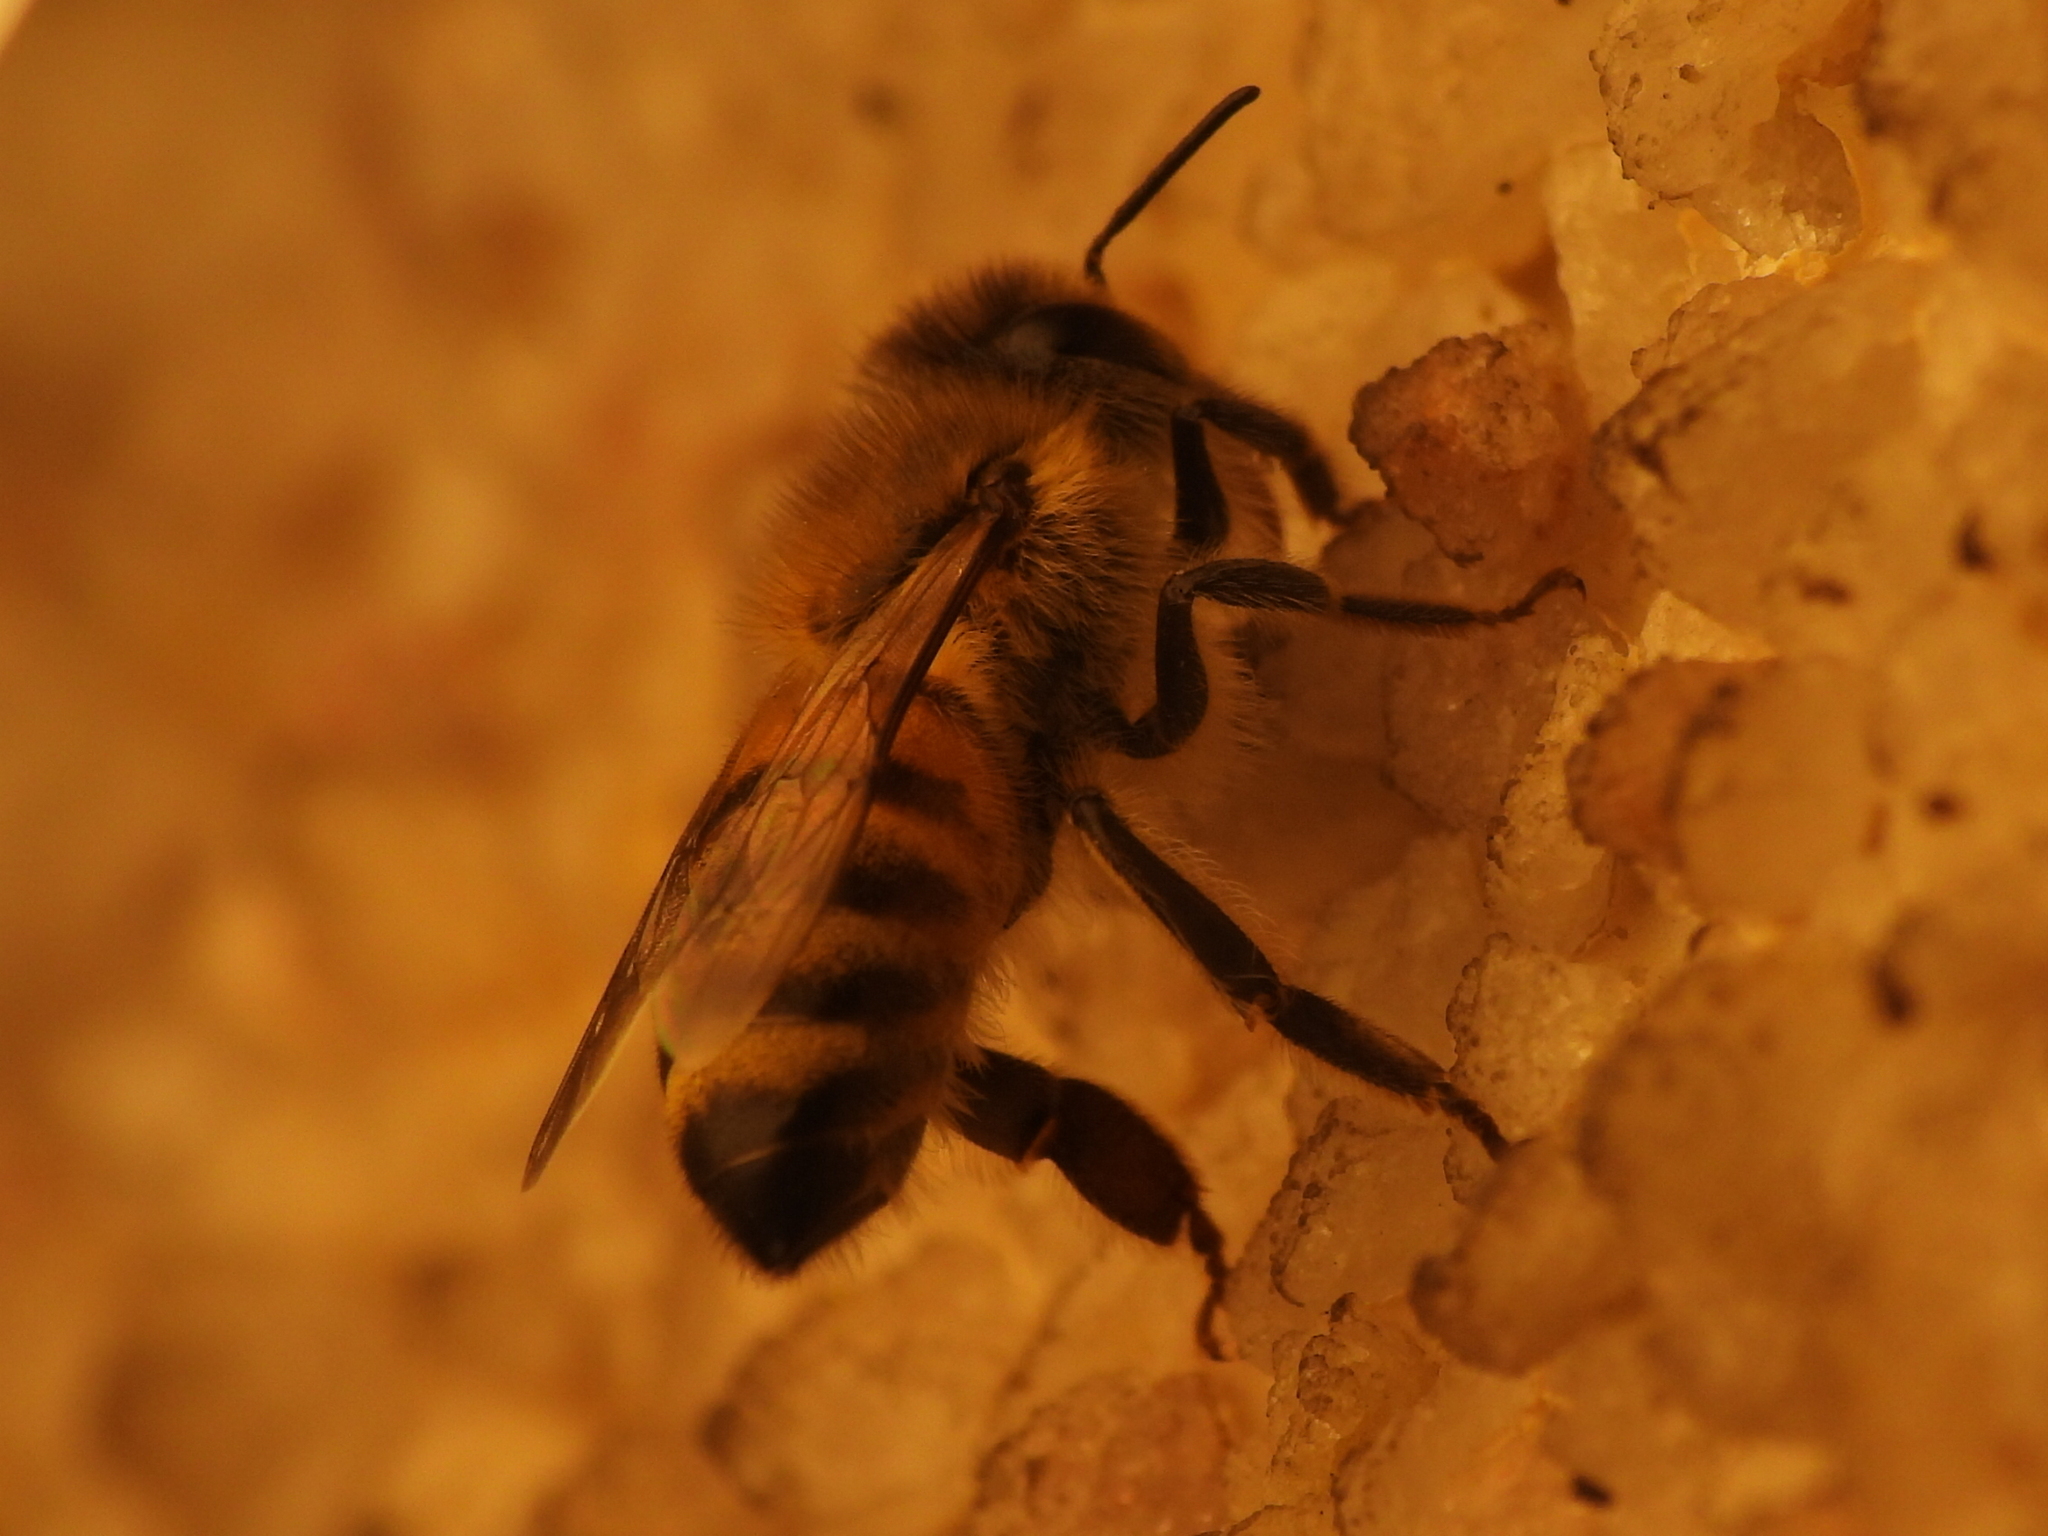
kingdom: Animalia
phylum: Arthropoda
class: Insecta
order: Hymenoptera
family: Apidae
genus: Apis
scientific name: Apis mellifera
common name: Honey bee
